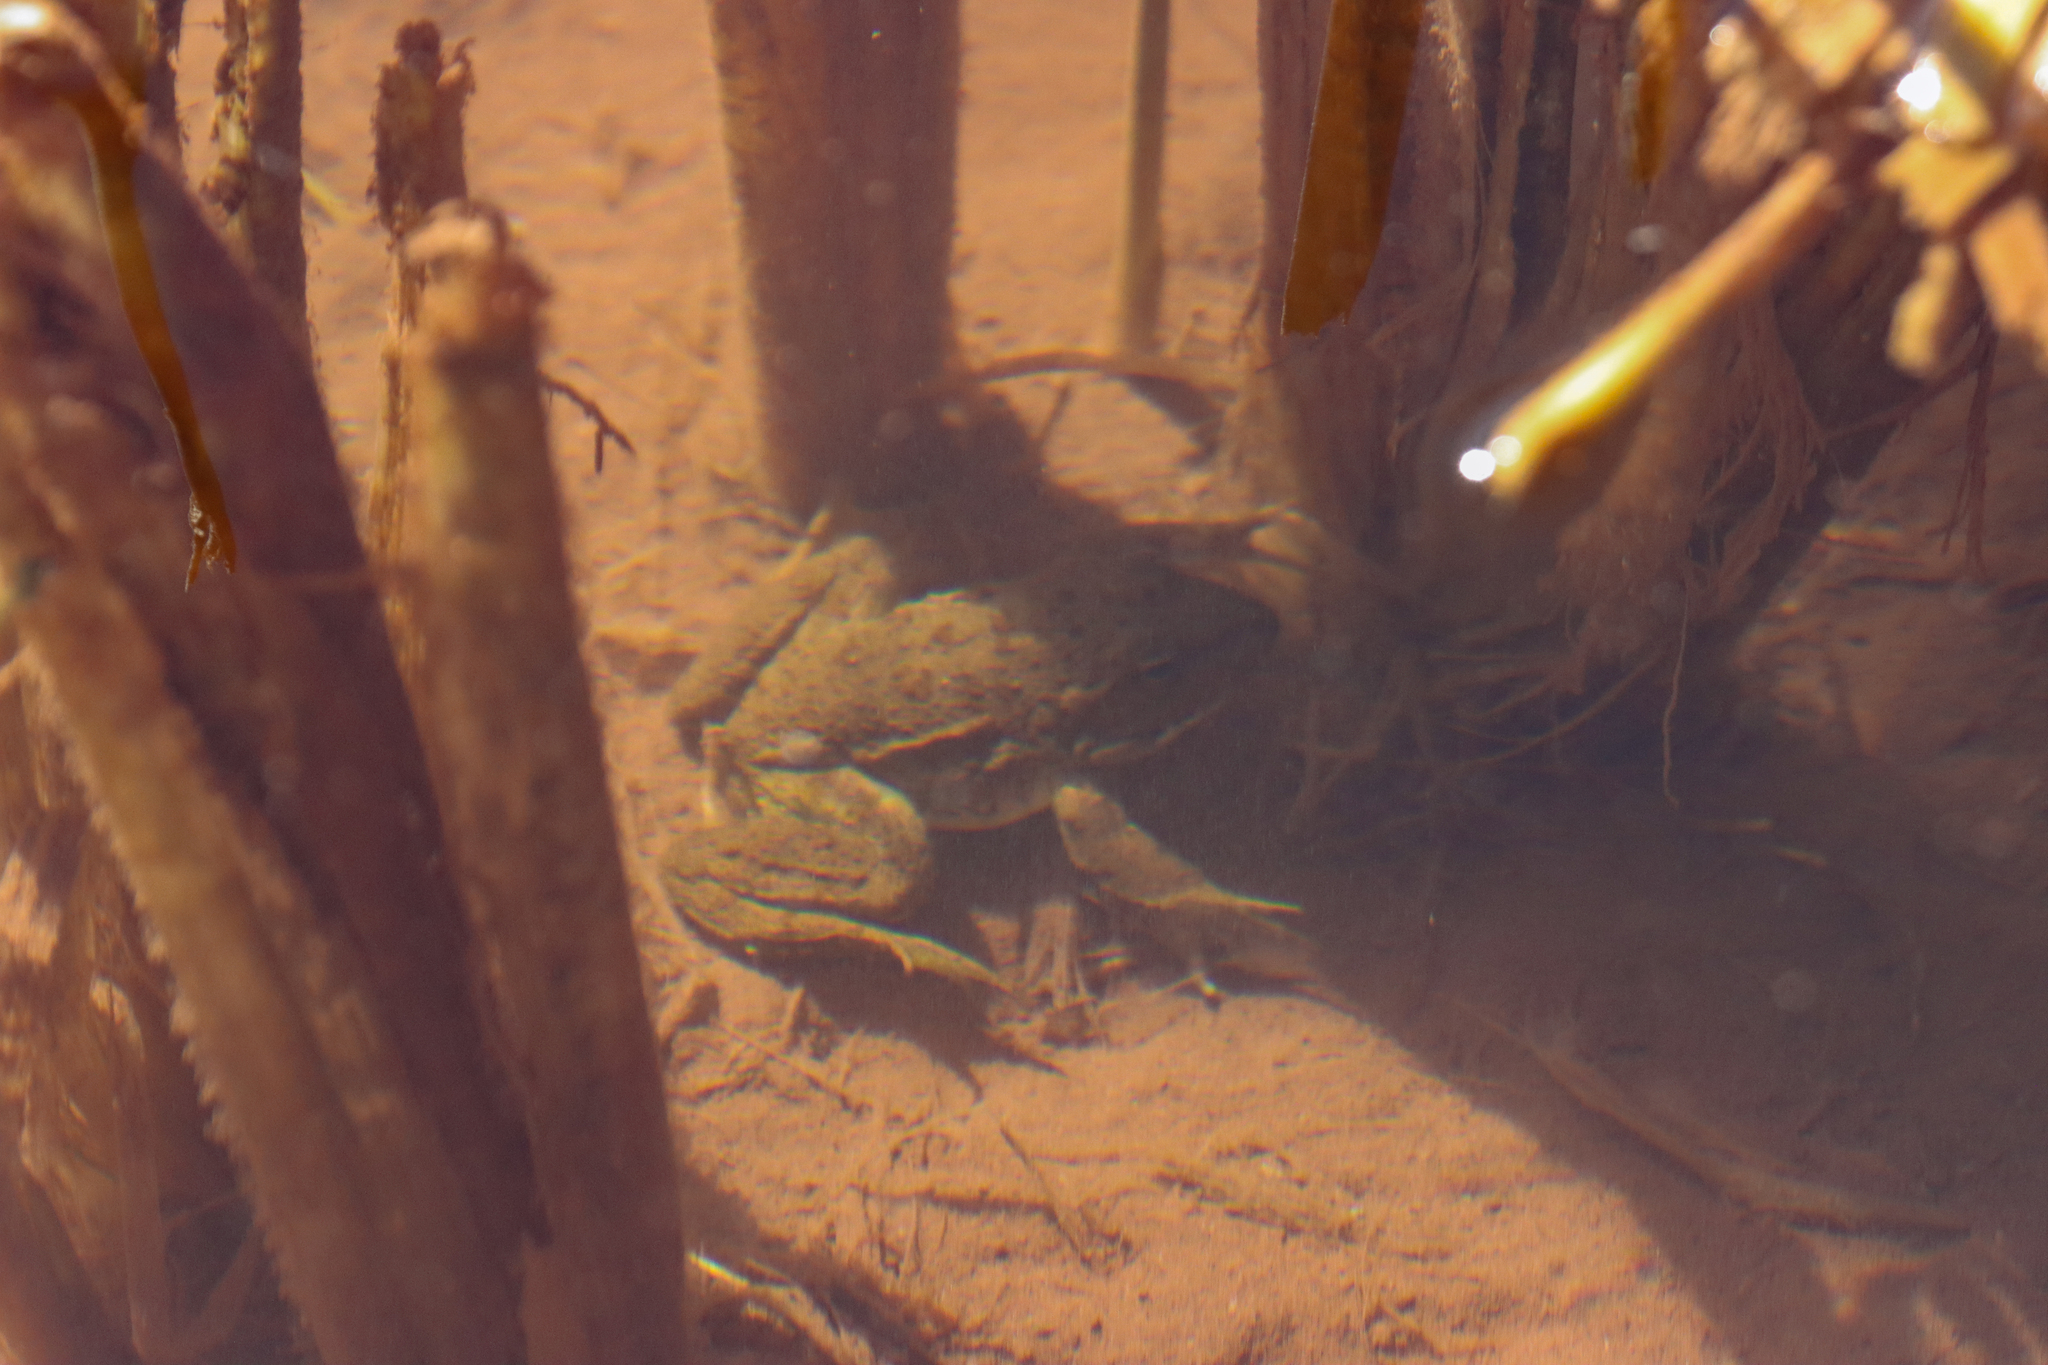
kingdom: Animalia
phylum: Chordata
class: Amphibia
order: Anura
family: Ranidae
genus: Pelophylax
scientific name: Pelophylax saharicus
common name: Sahara frog
